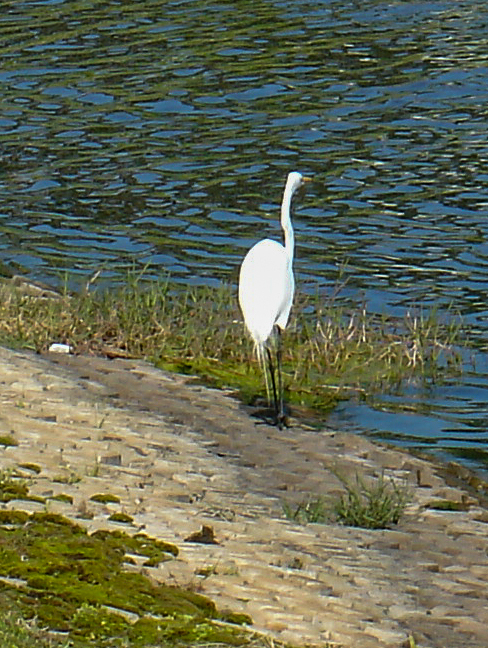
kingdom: Animalia
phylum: Chordata
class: Aves
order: Pelecaniformes
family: Ardeidae
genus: Ardea
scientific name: Ardea alba
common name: Great egret
